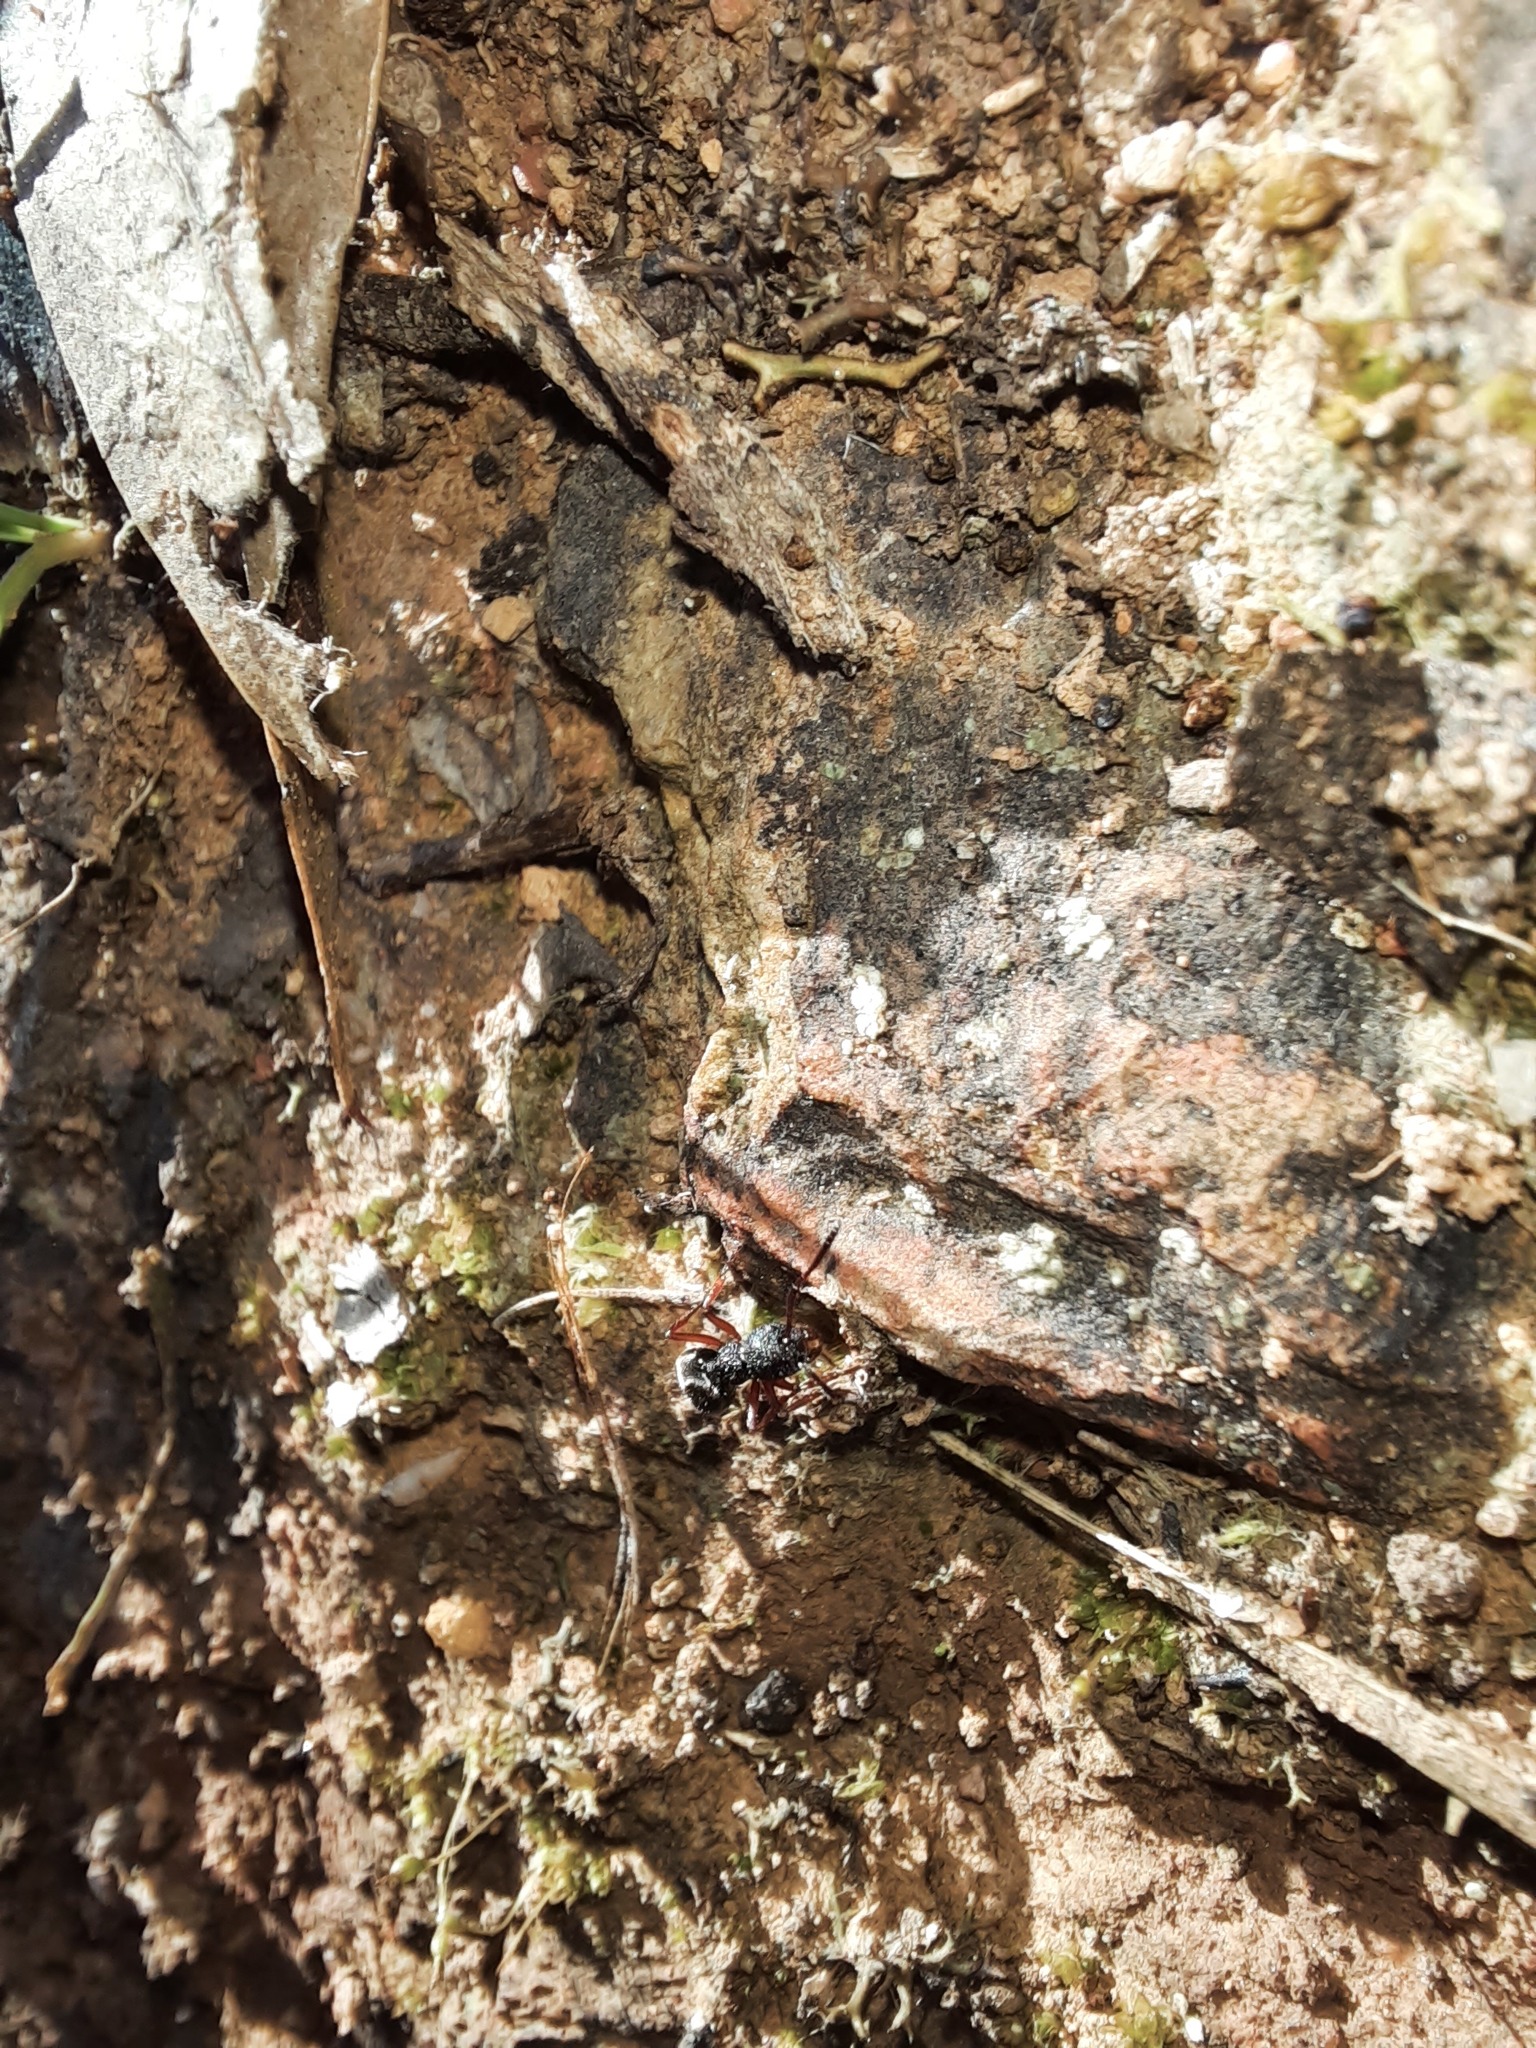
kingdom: Animalia
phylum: Arthropoda
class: Insecta
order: Hymenoptera
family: Formicidae
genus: Dolichoderus
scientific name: Dolichoderus scabridus
